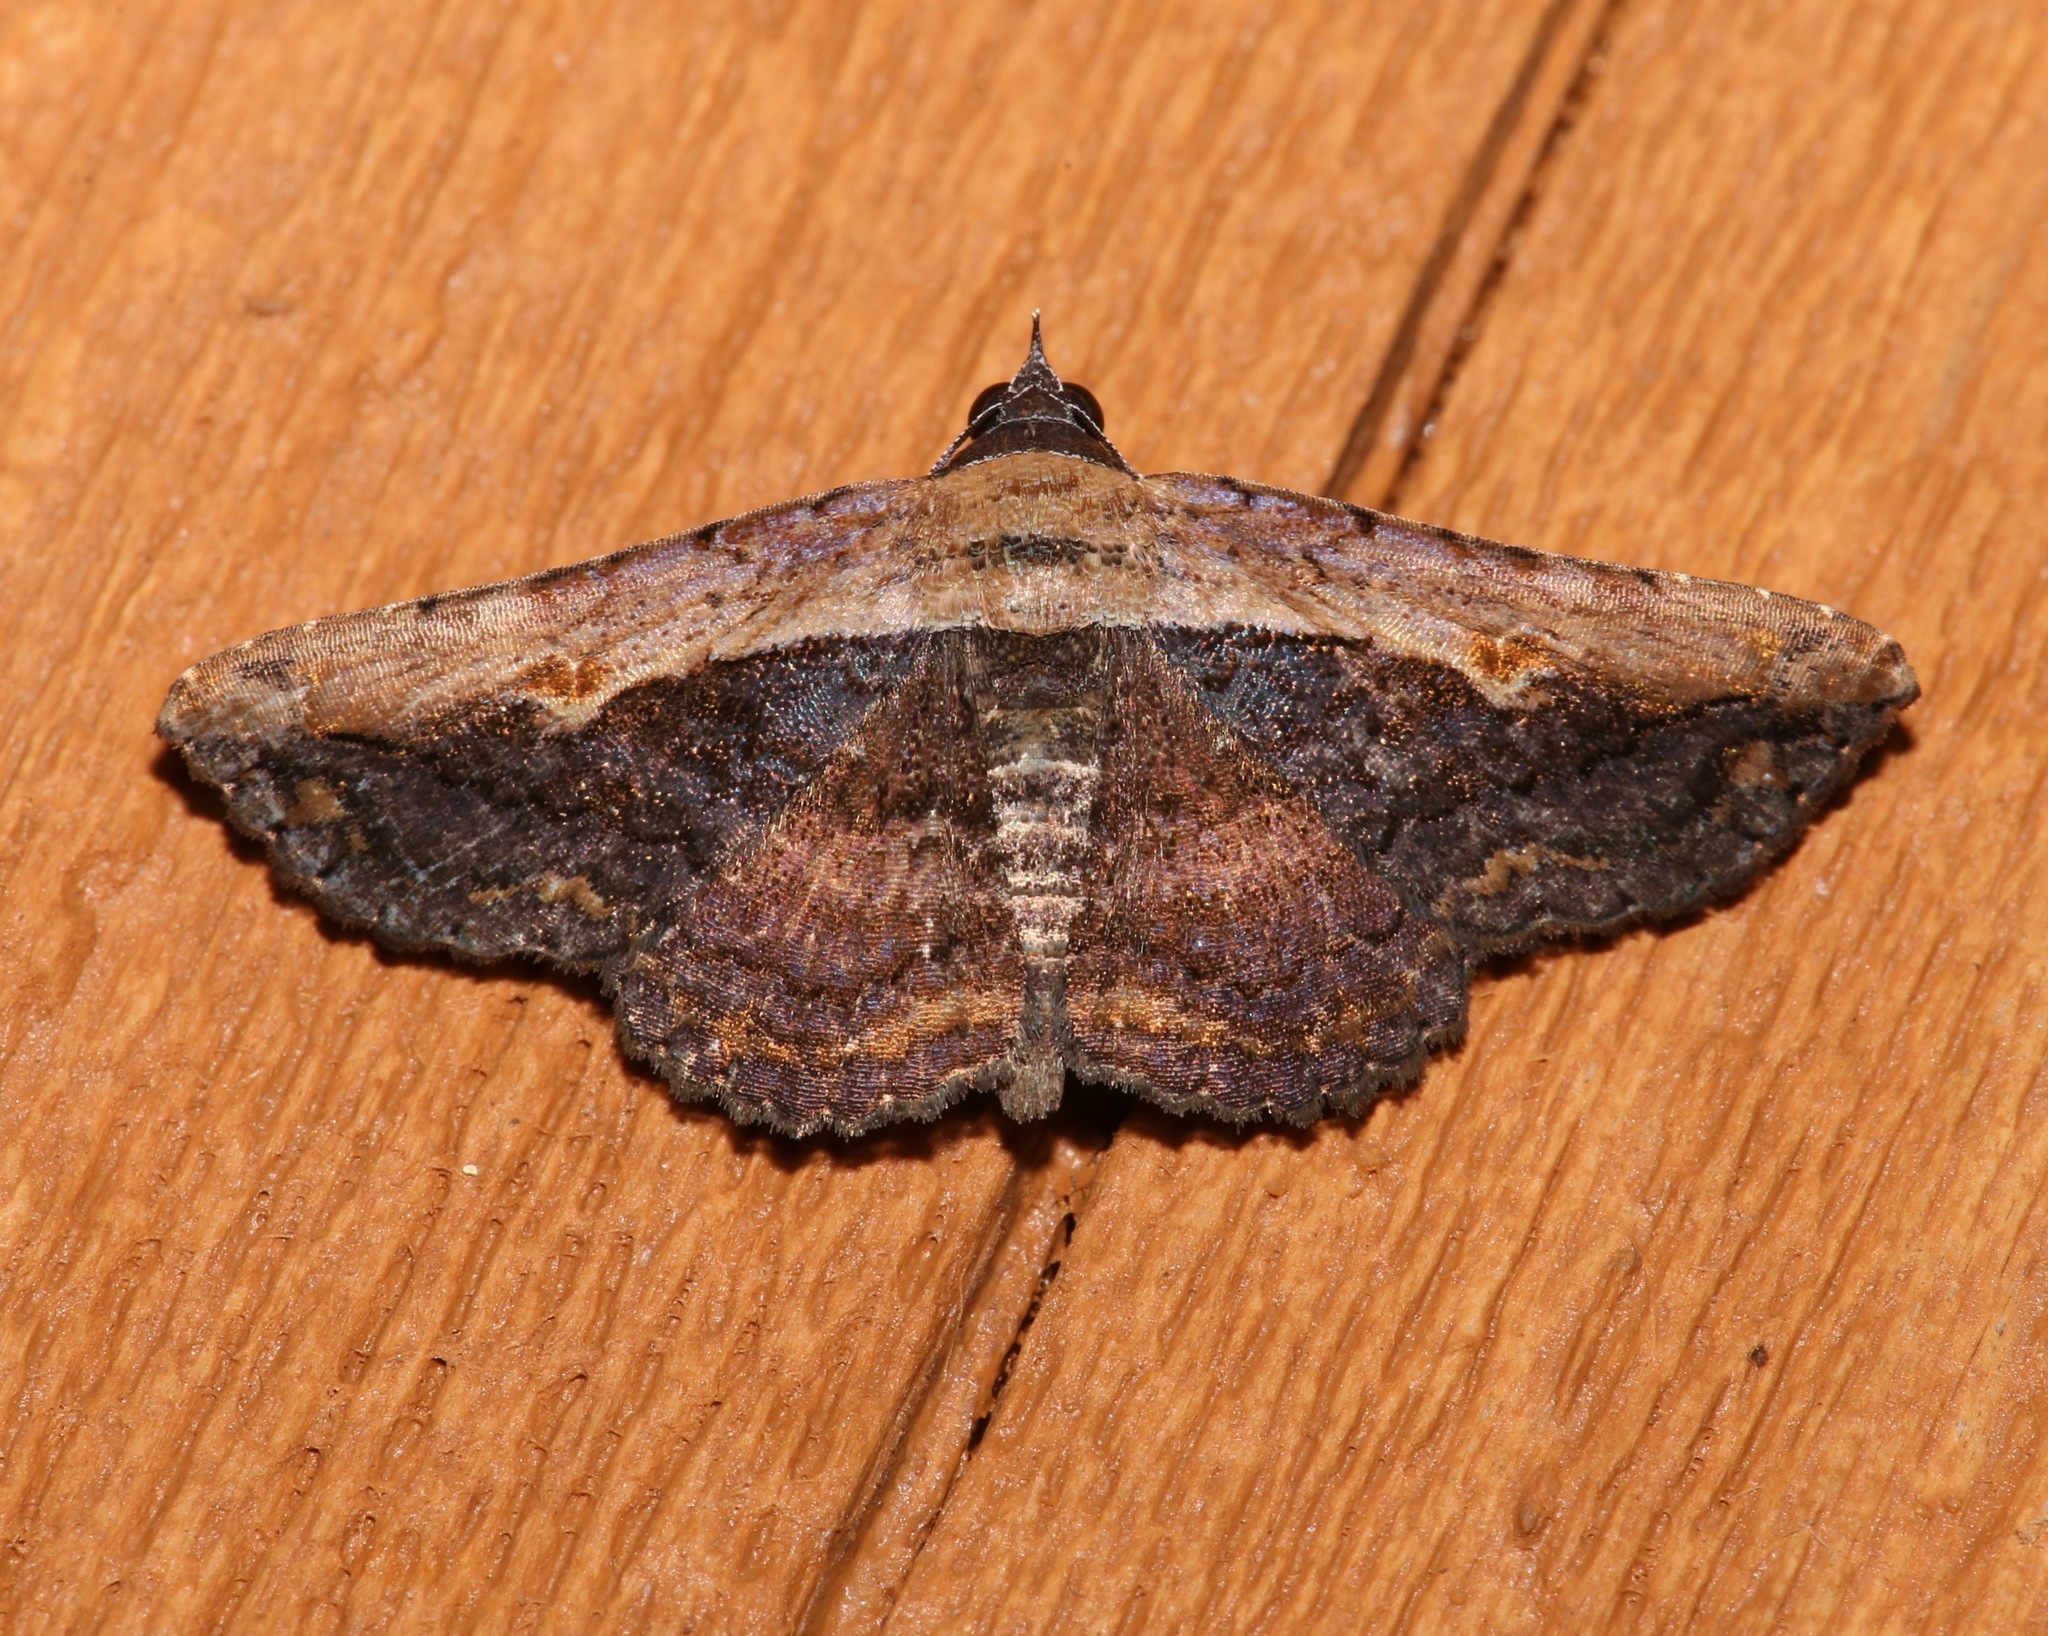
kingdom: Animalia
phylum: Arthropoda
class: Insecta
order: Lepidoptera
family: Erebidae
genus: Selenisa
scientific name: Selenisa sueroides
